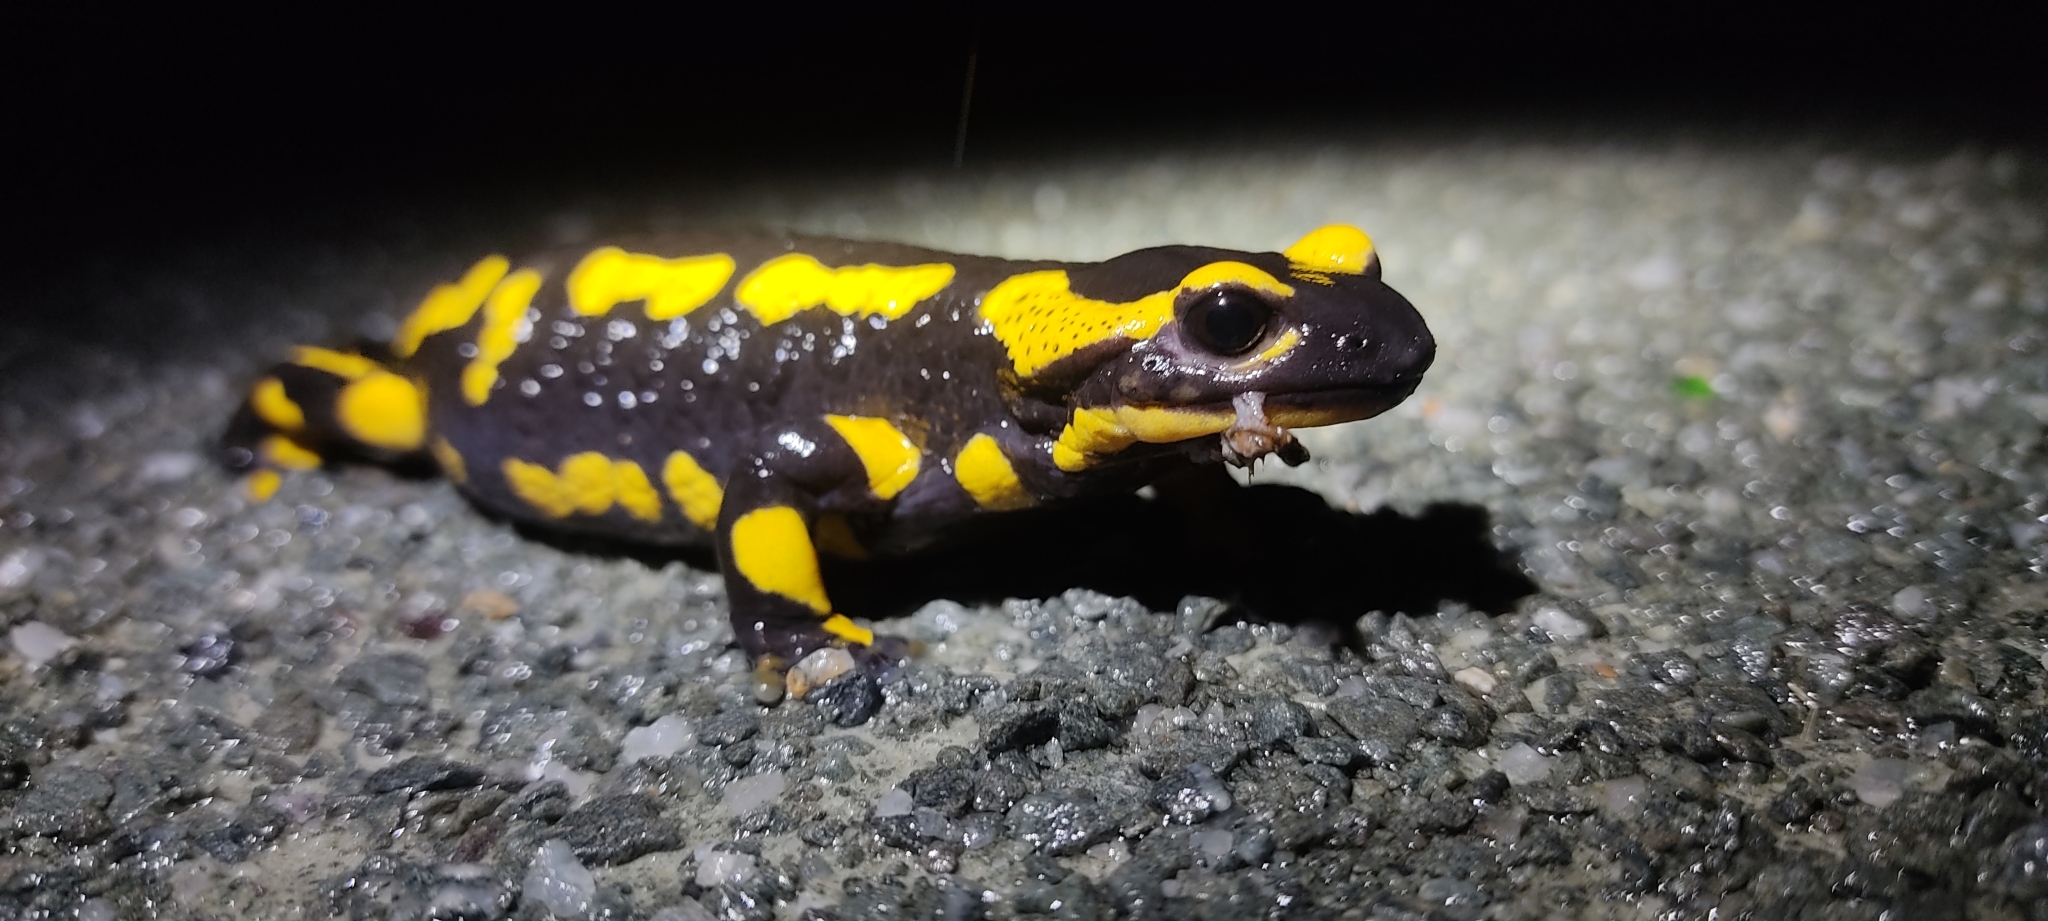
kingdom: Animalia
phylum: Chordata
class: Amphibia
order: Caudata
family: Salamandridae
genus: Salamandra
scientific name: Salamandra salamandra
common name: Fire salamander
